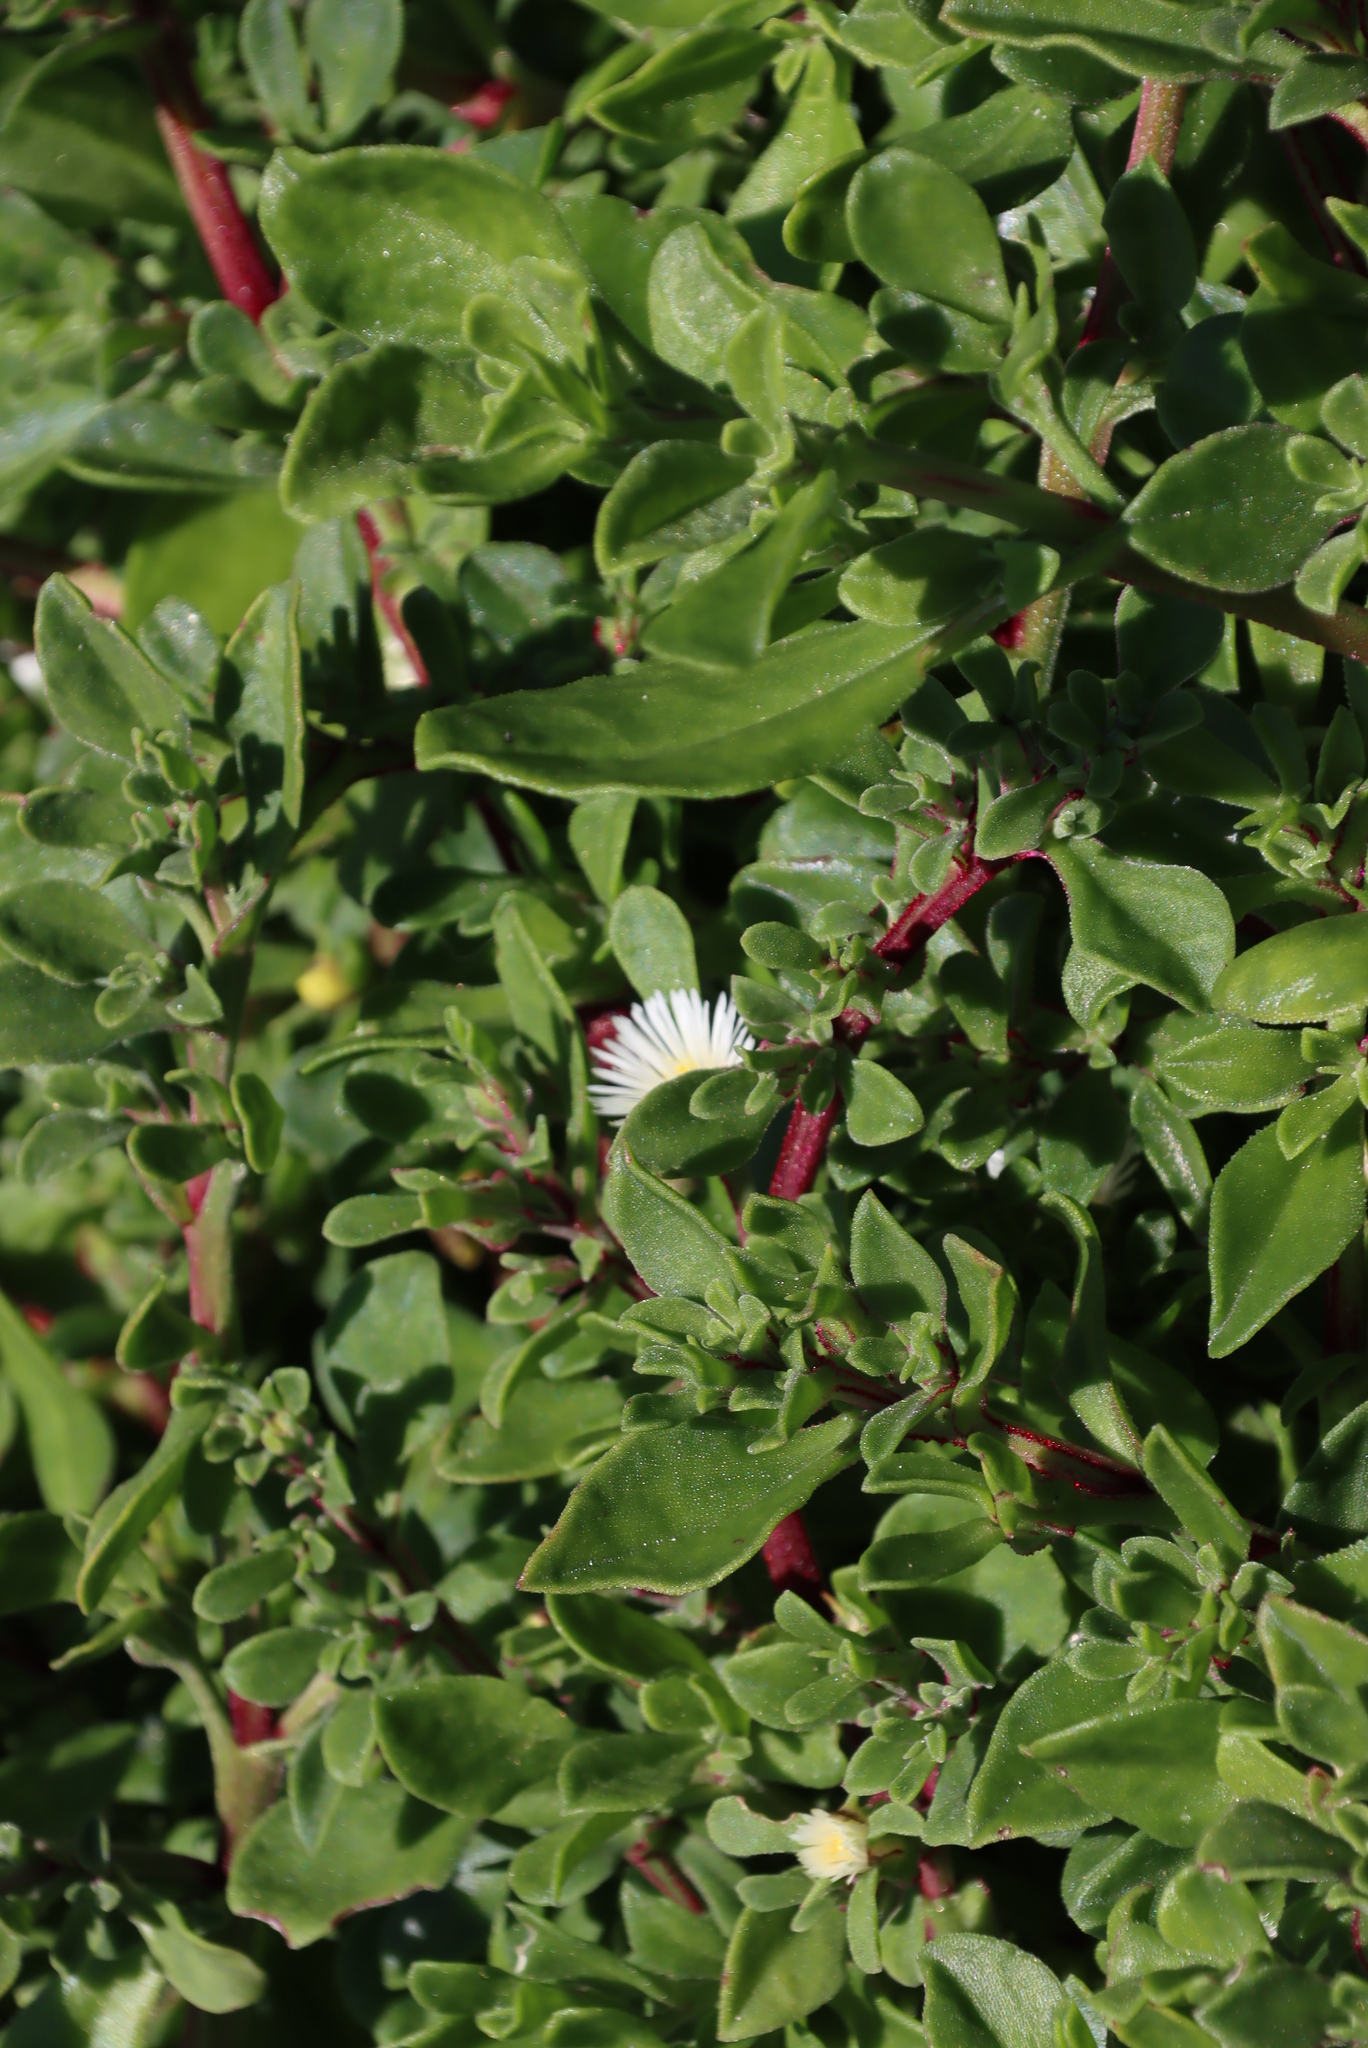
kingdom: Plantae
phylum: Tracheophyta
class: Magnoliopsida
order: Caryophyllales
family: Aizoaceae
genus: Mesembryanthemum
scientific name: Mesembryanthemum aitonis
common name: Angled iceplant
